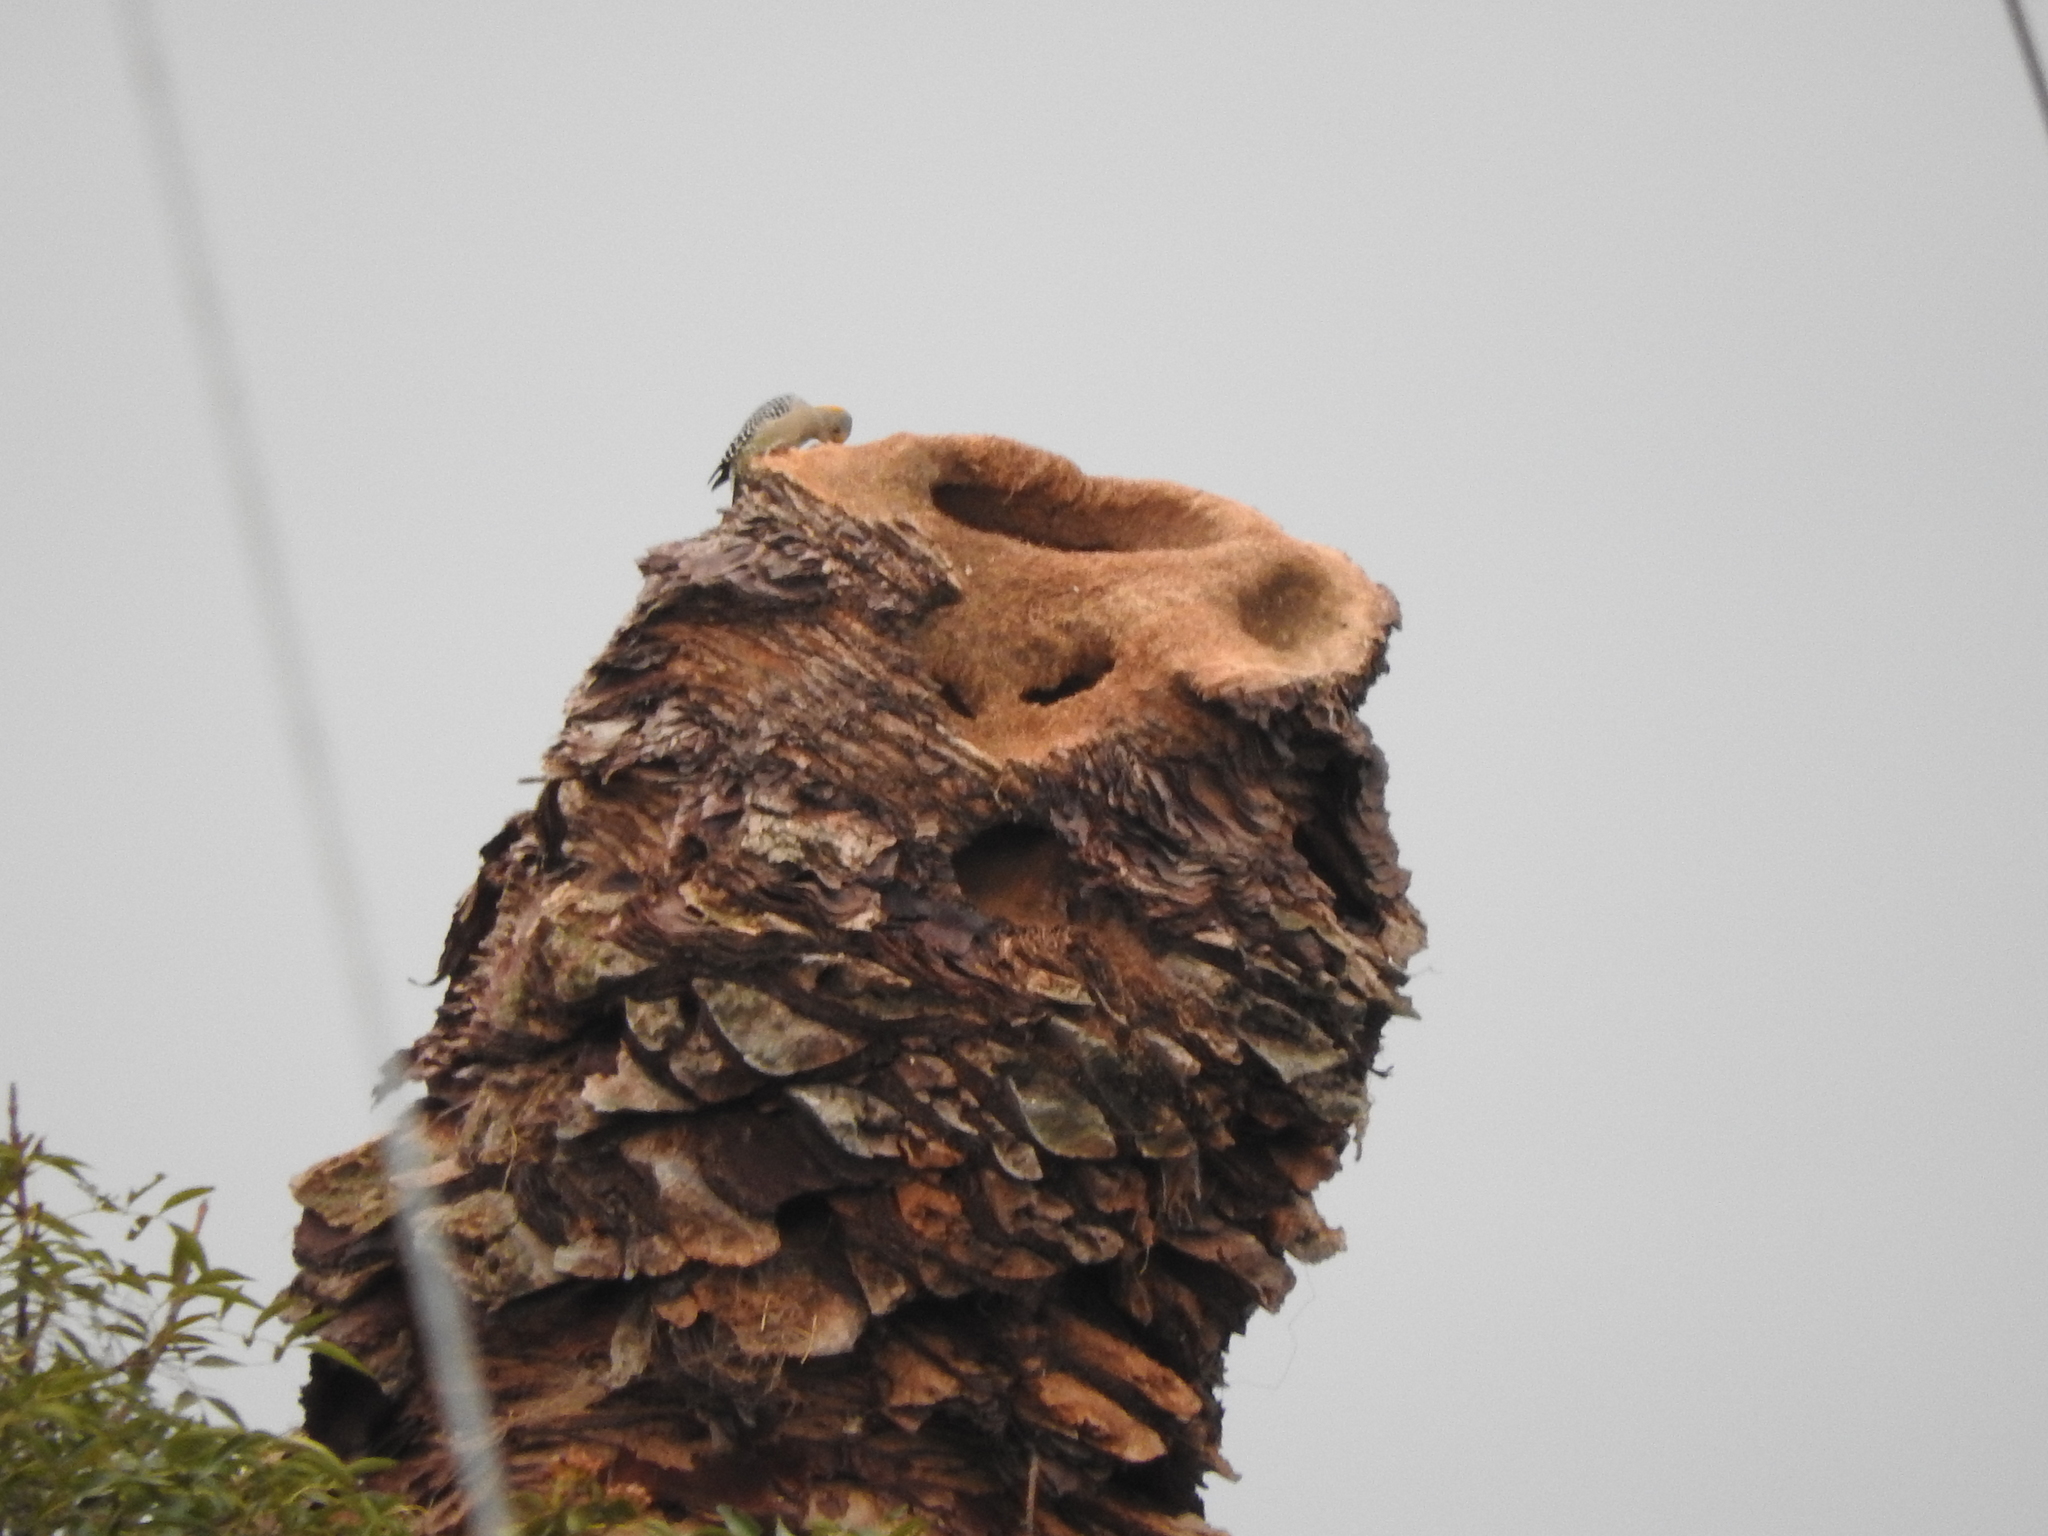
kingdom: Animalia
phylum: Chordata
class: Aves
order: Piciformes
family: Picidae
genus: Melanerpes
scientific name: Melanerpes aurifrons
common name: Golden-fronted woodpecker
